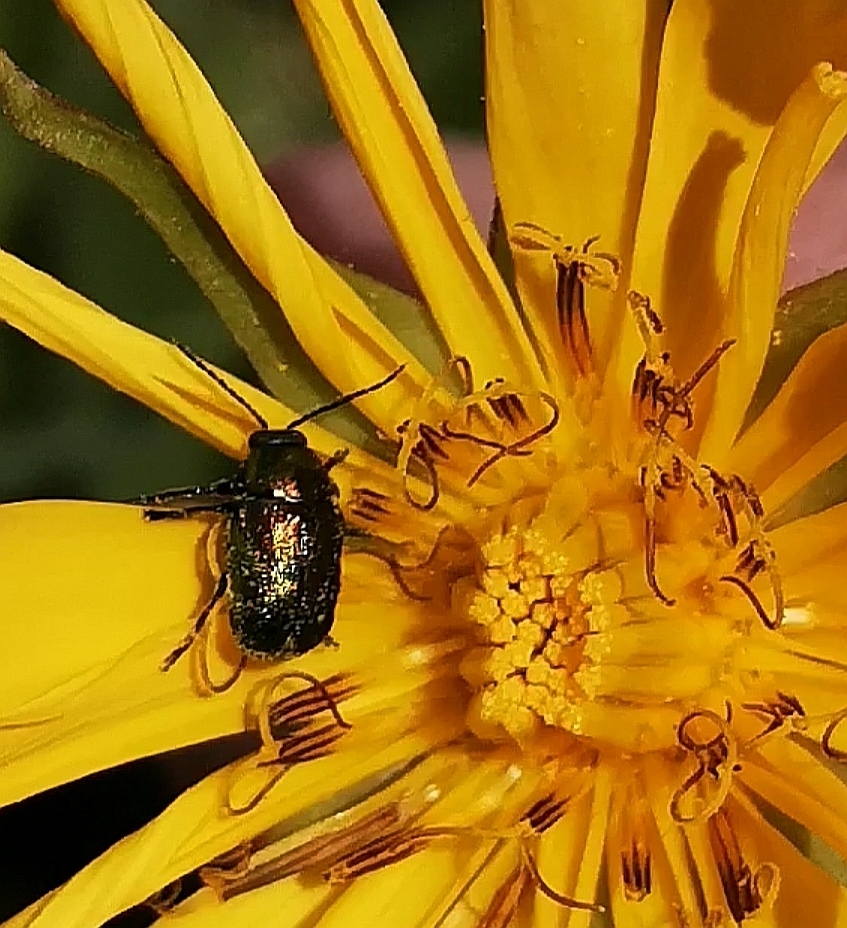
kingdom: Animalia
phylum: Arthropoda
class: Insecta
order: Coleoptera
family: Chrysomelidae
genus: Cryptocephalus
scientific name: Cryptocephalus
